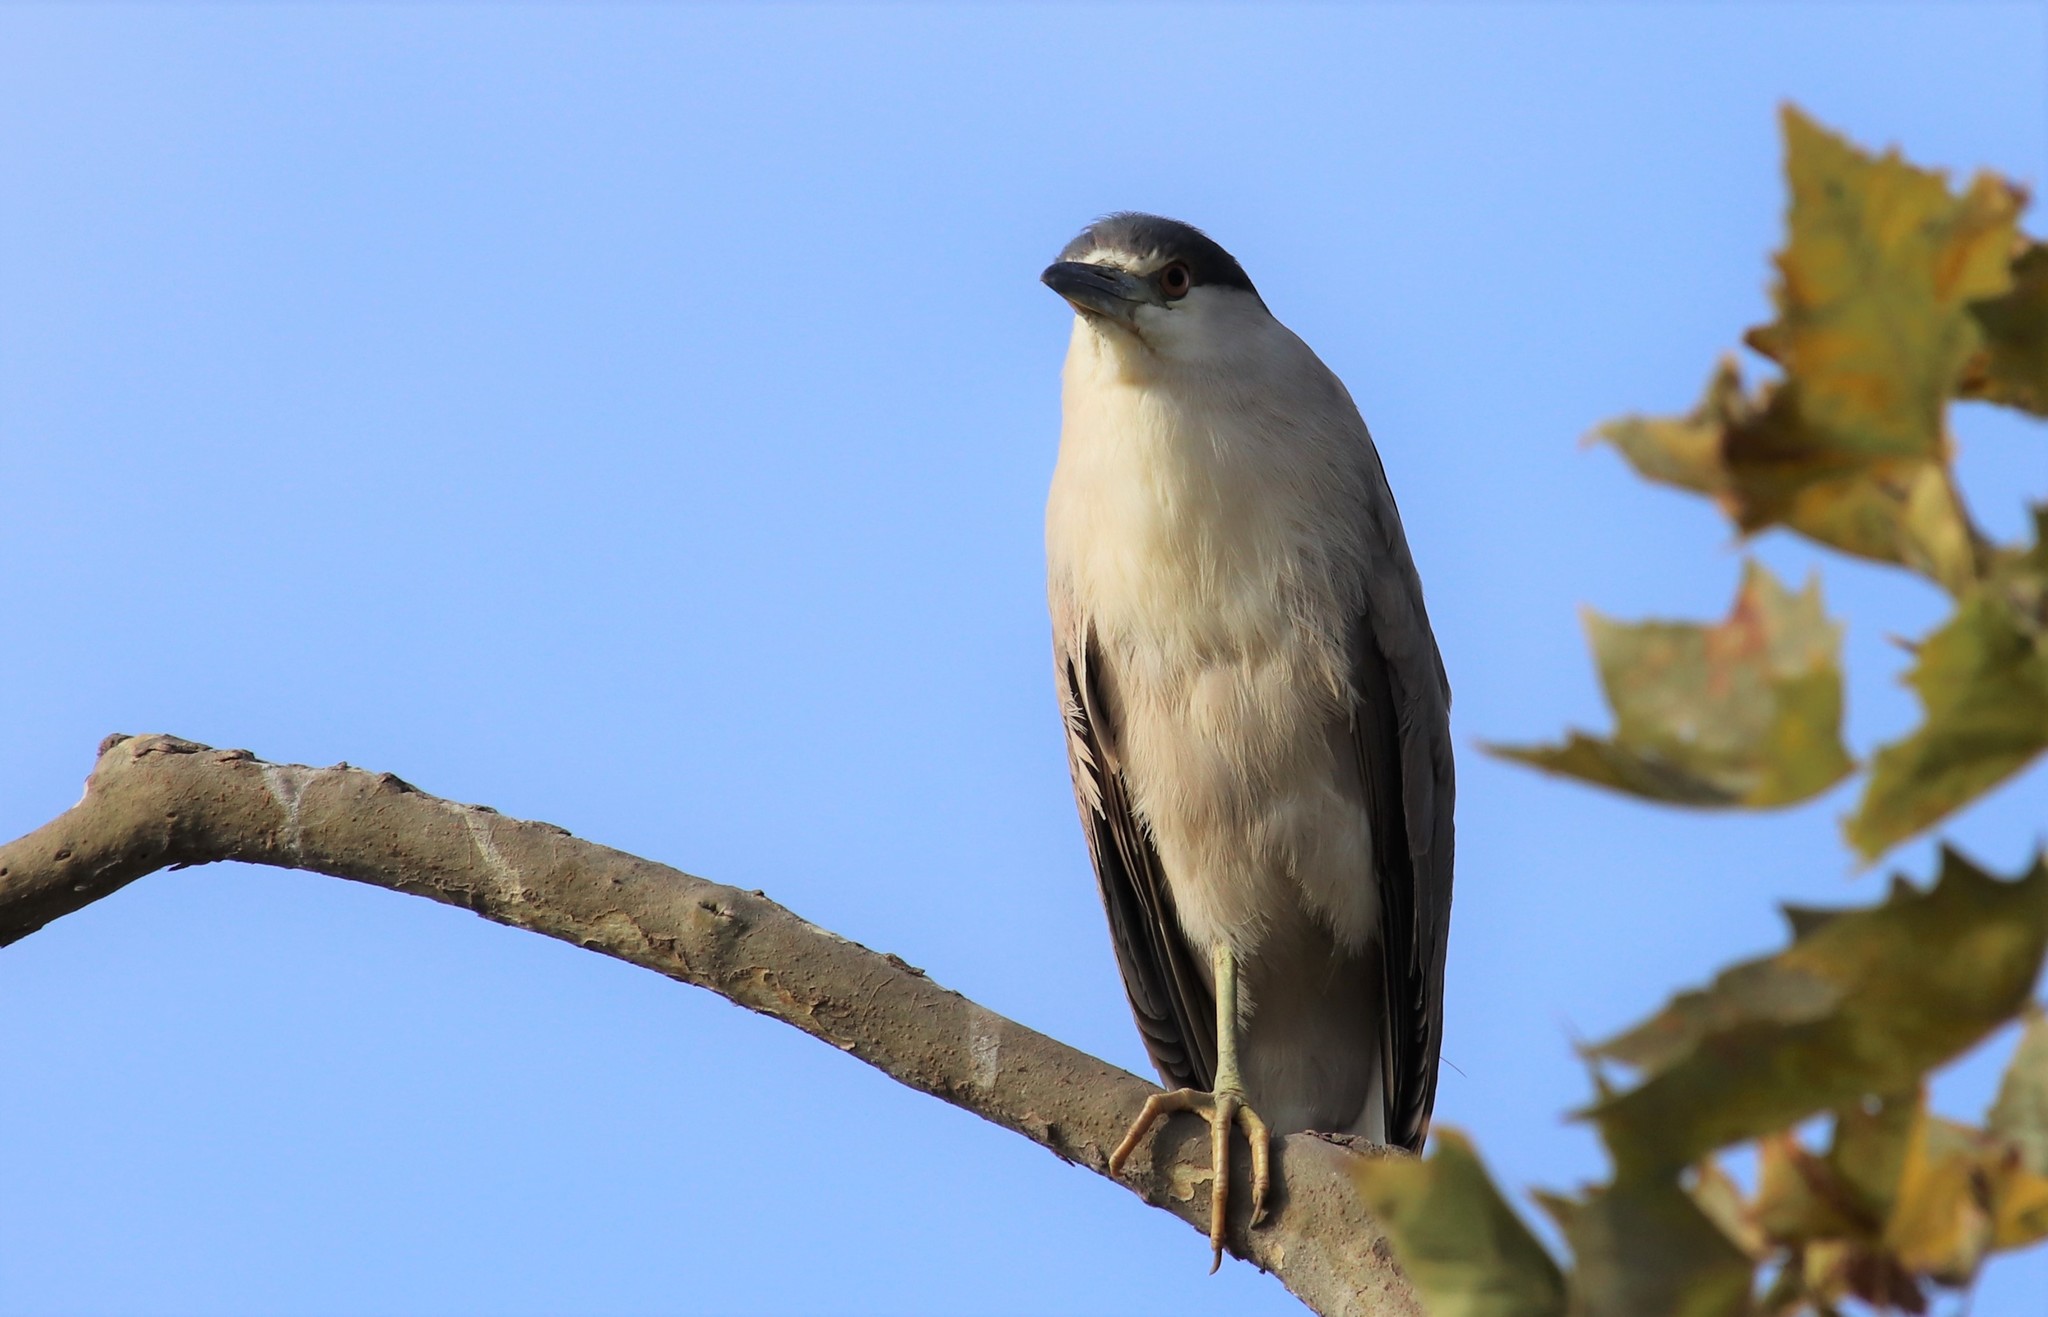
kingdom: Animalia
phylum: Chordata
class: Aves
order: Pelecaniformes
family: Ardeidae
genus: Nycticorax
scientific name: Nycticorax nycticorax
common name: Black-crowned night heron
